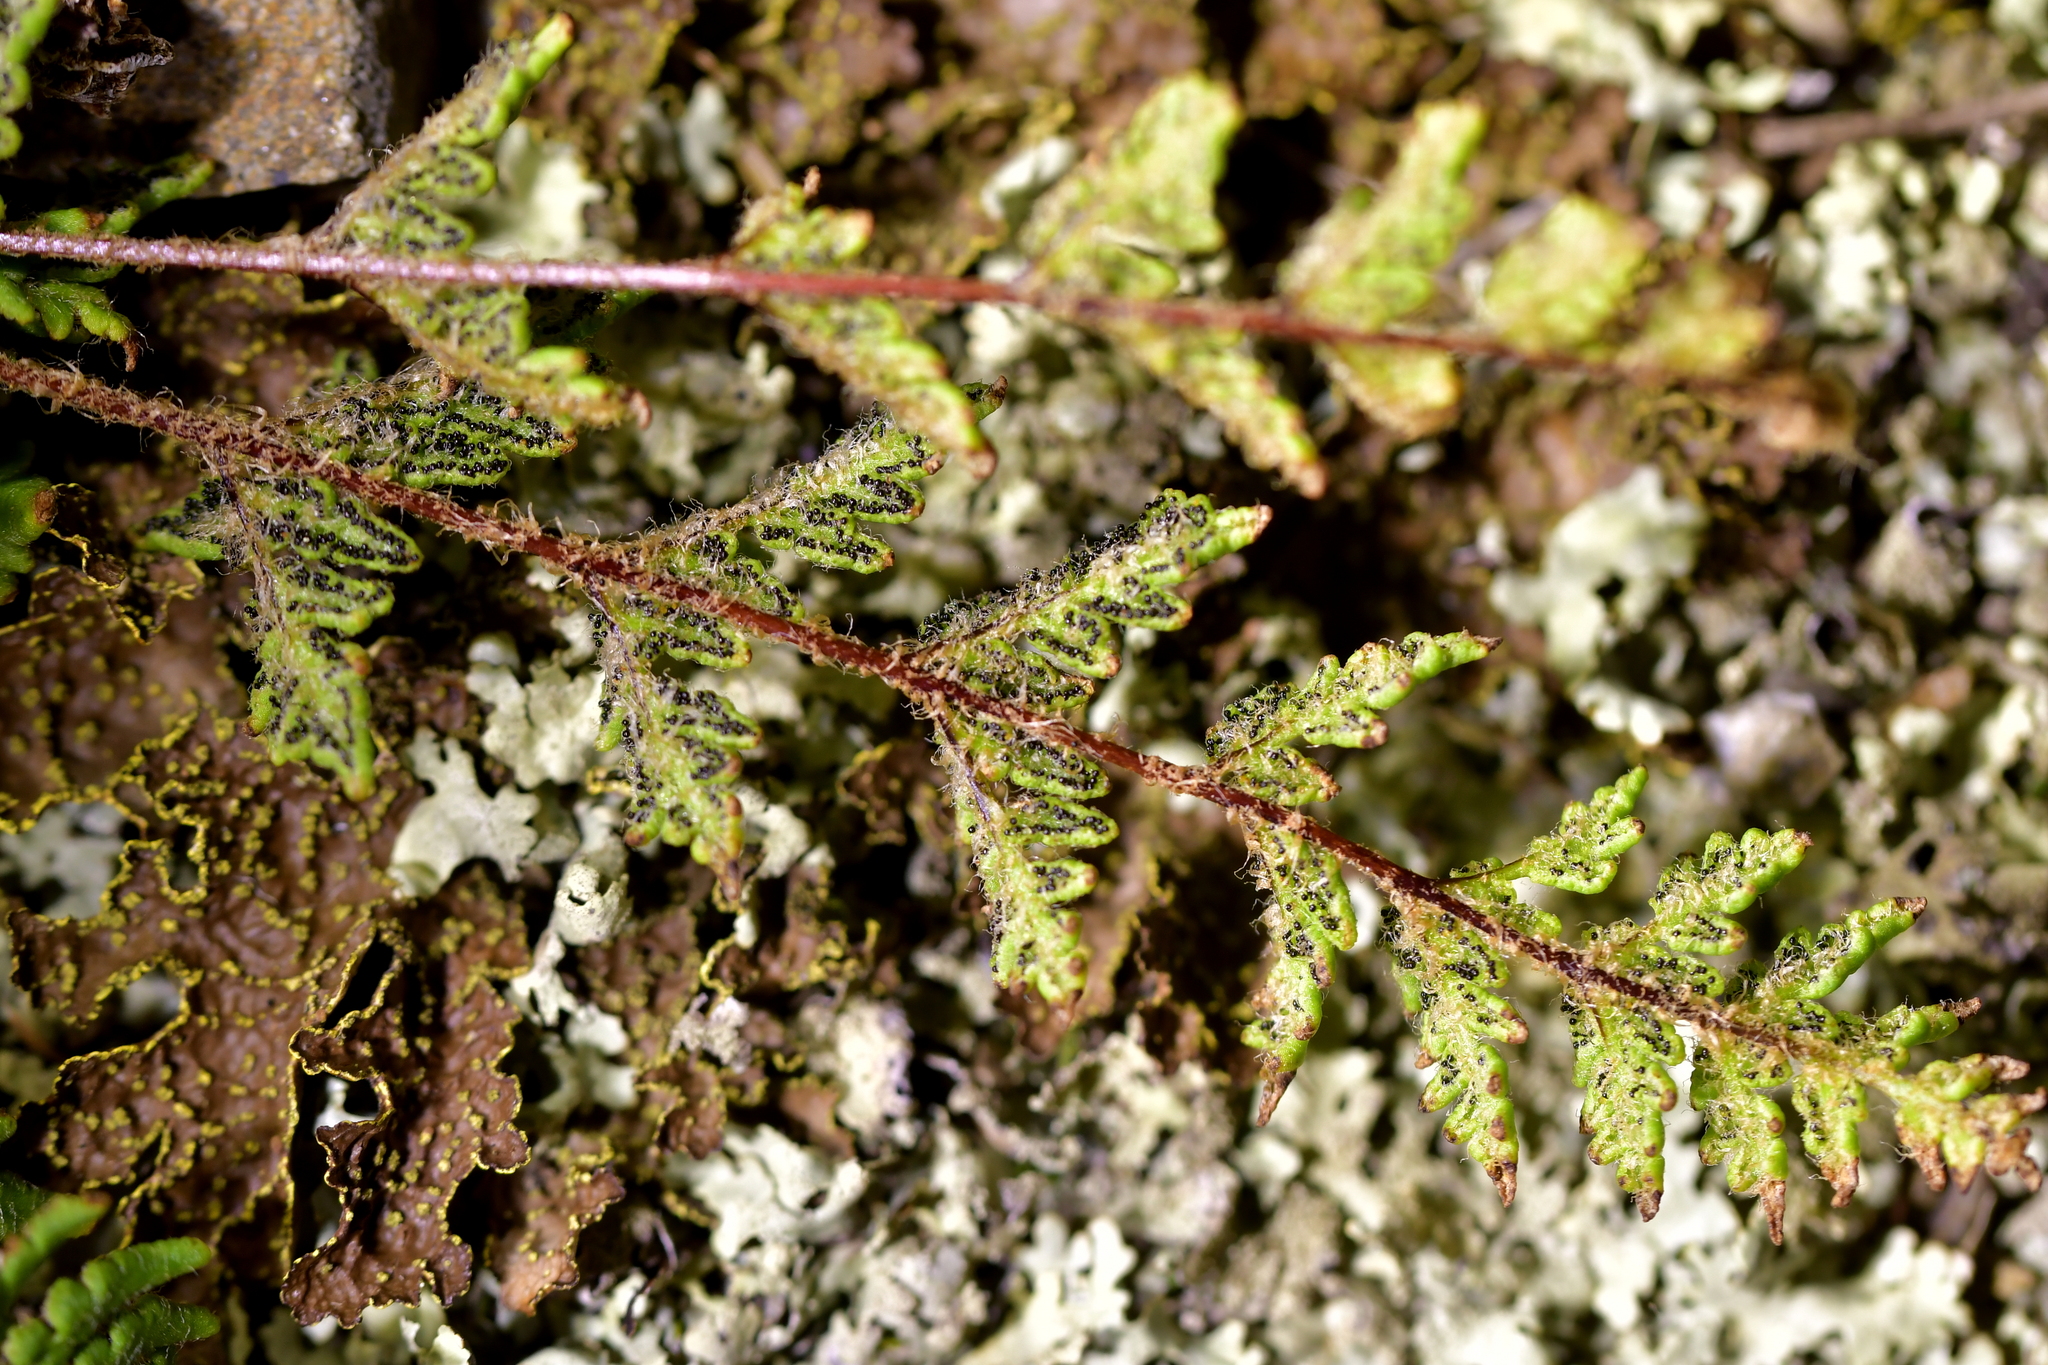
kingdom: Plantae
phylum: Tracheophyta
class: Polypodiopsida
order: Polypodiales
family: Pteridaceae
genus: Cheilanthes
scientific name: Cheilanthes distans
